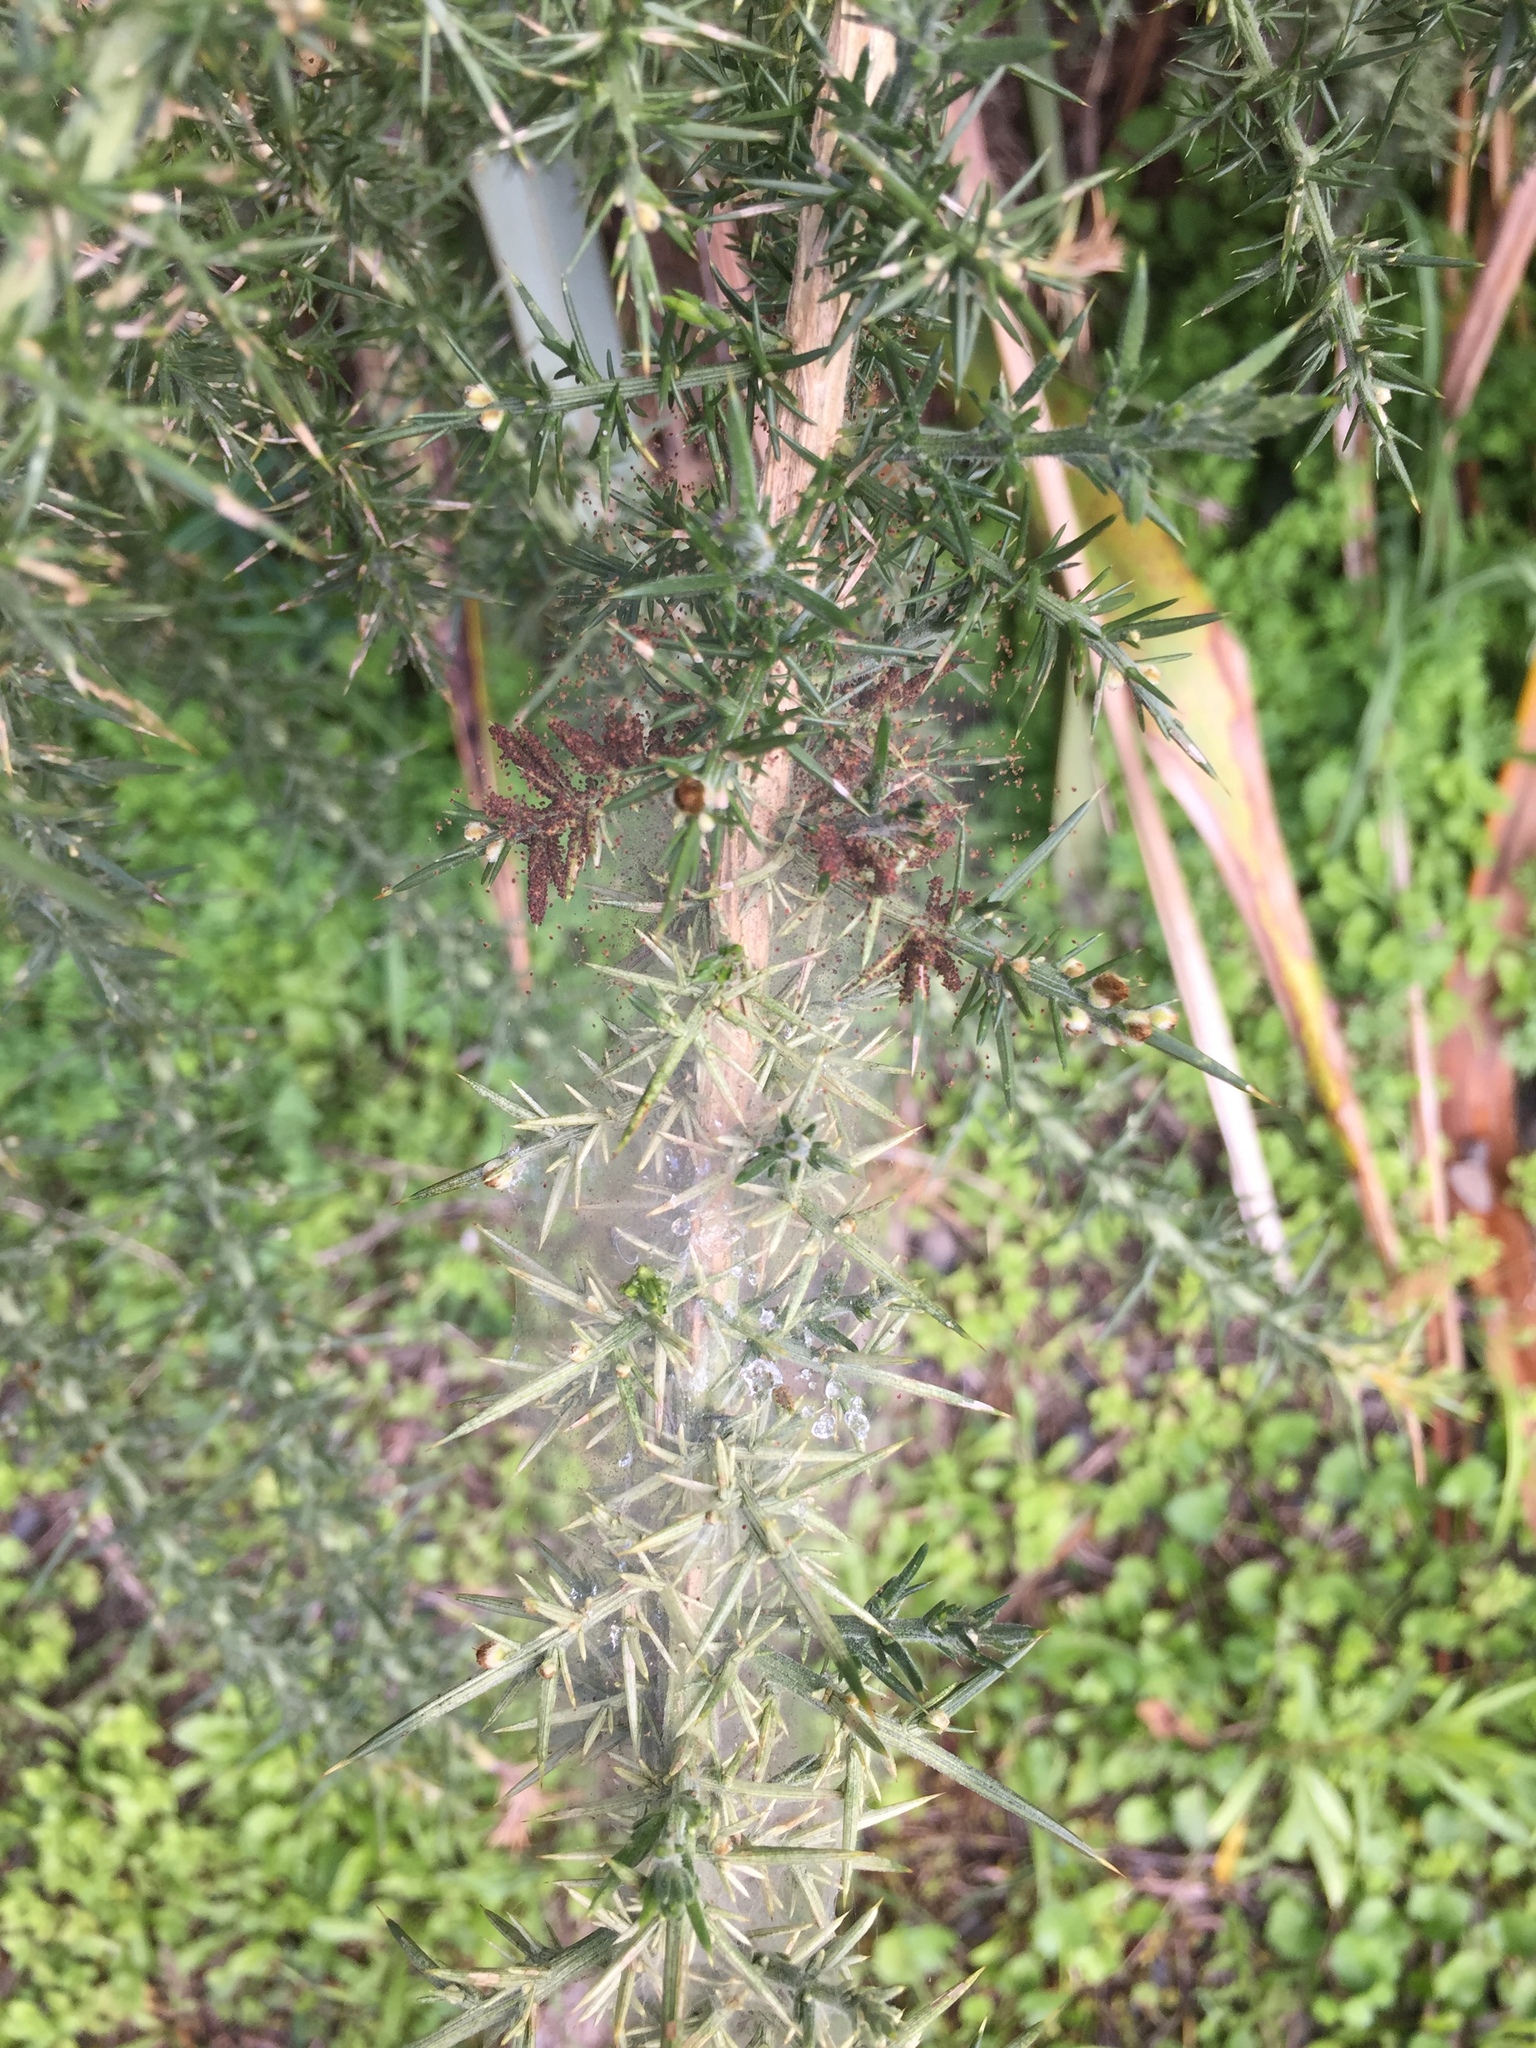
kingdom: Animalia
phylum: Arthropoda
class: Arachnida
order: Trombidiformes
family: Tetranychidae
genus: Tetranychus
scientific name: Tetranychus lintearius
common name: Gorse spider mite
